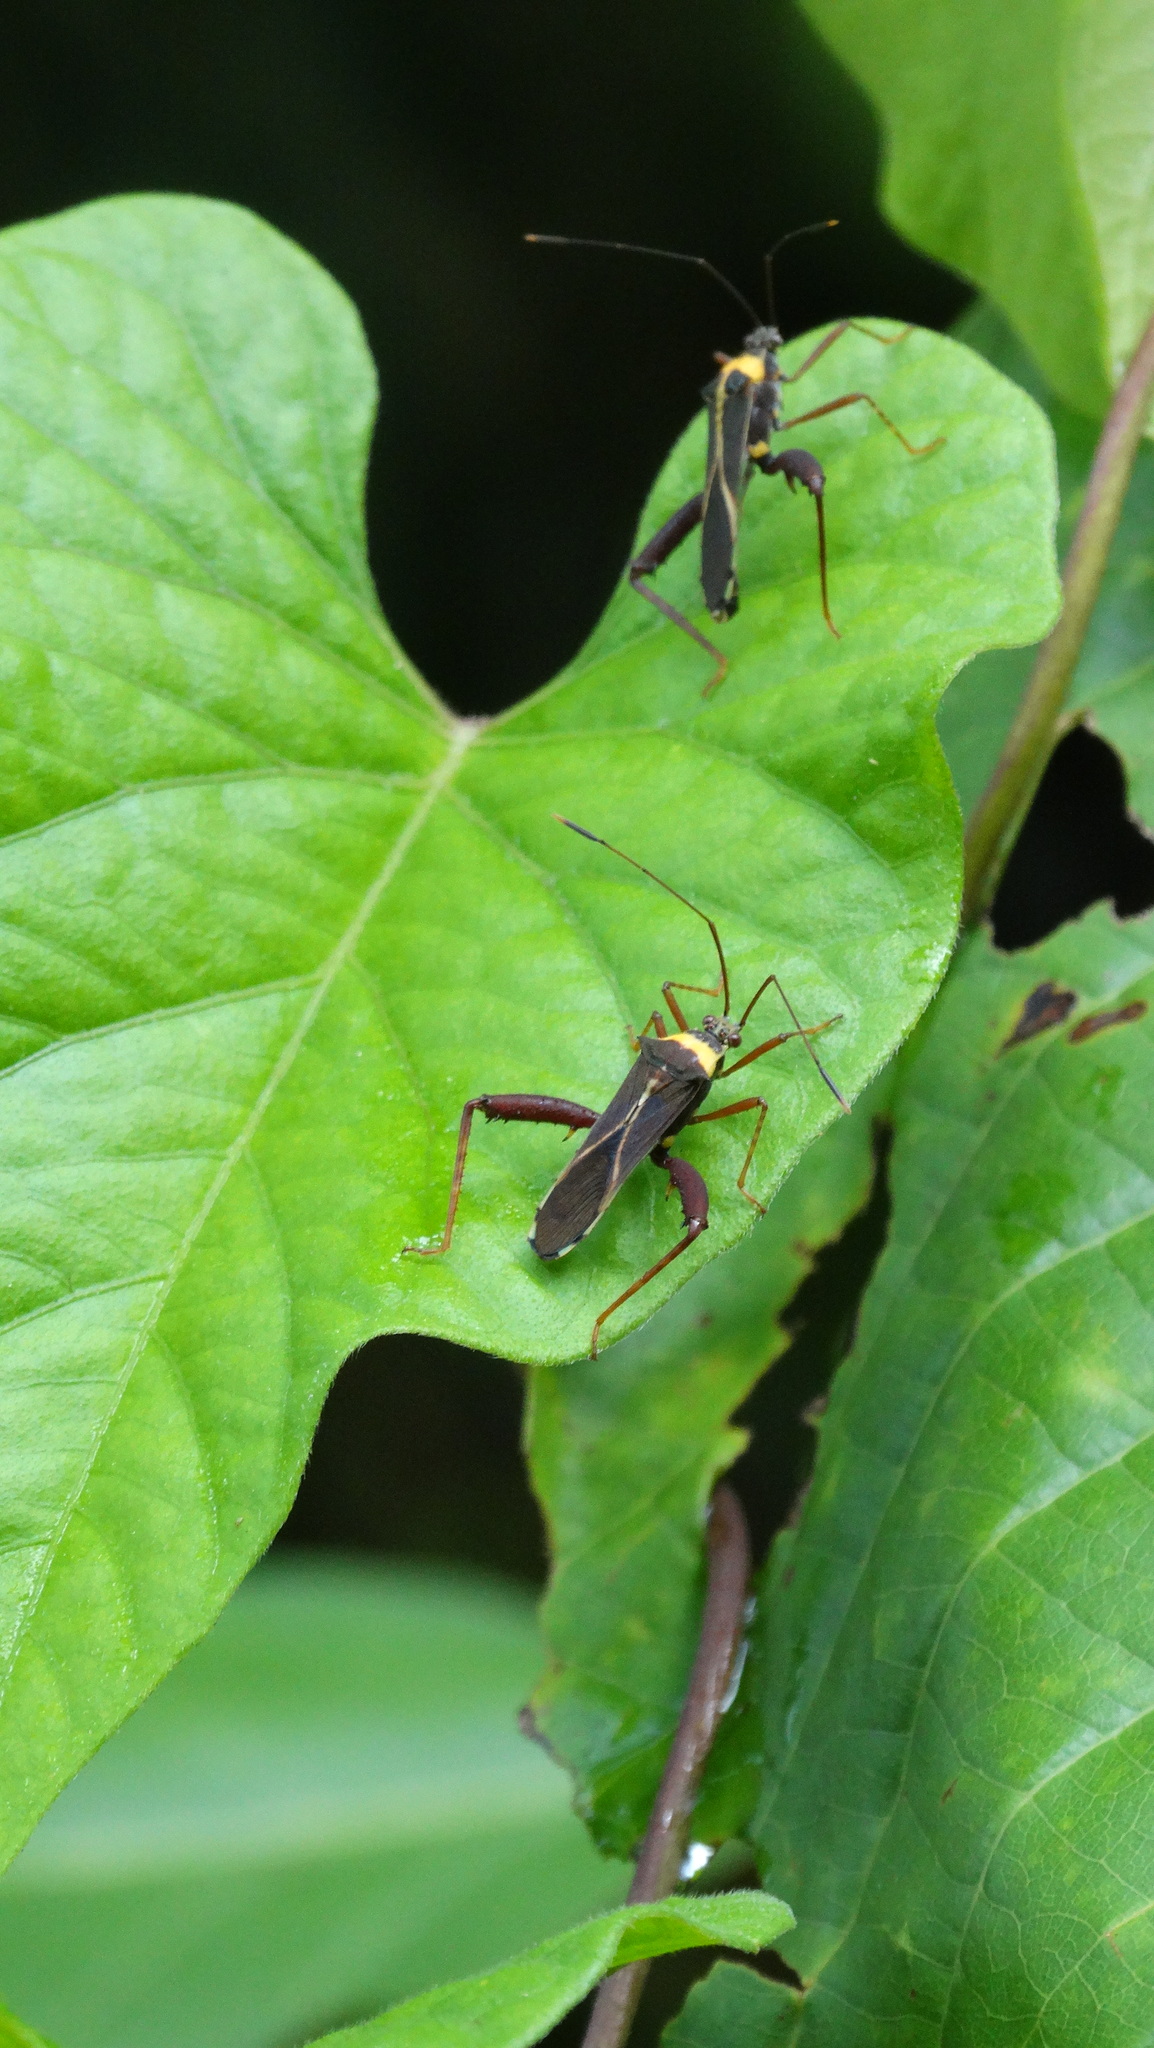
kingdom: Animalia
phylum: Arthropoda
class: Insecta
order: Hemiptera
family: Coreidae
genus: Zoreva
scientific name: Zoreva lacerna
